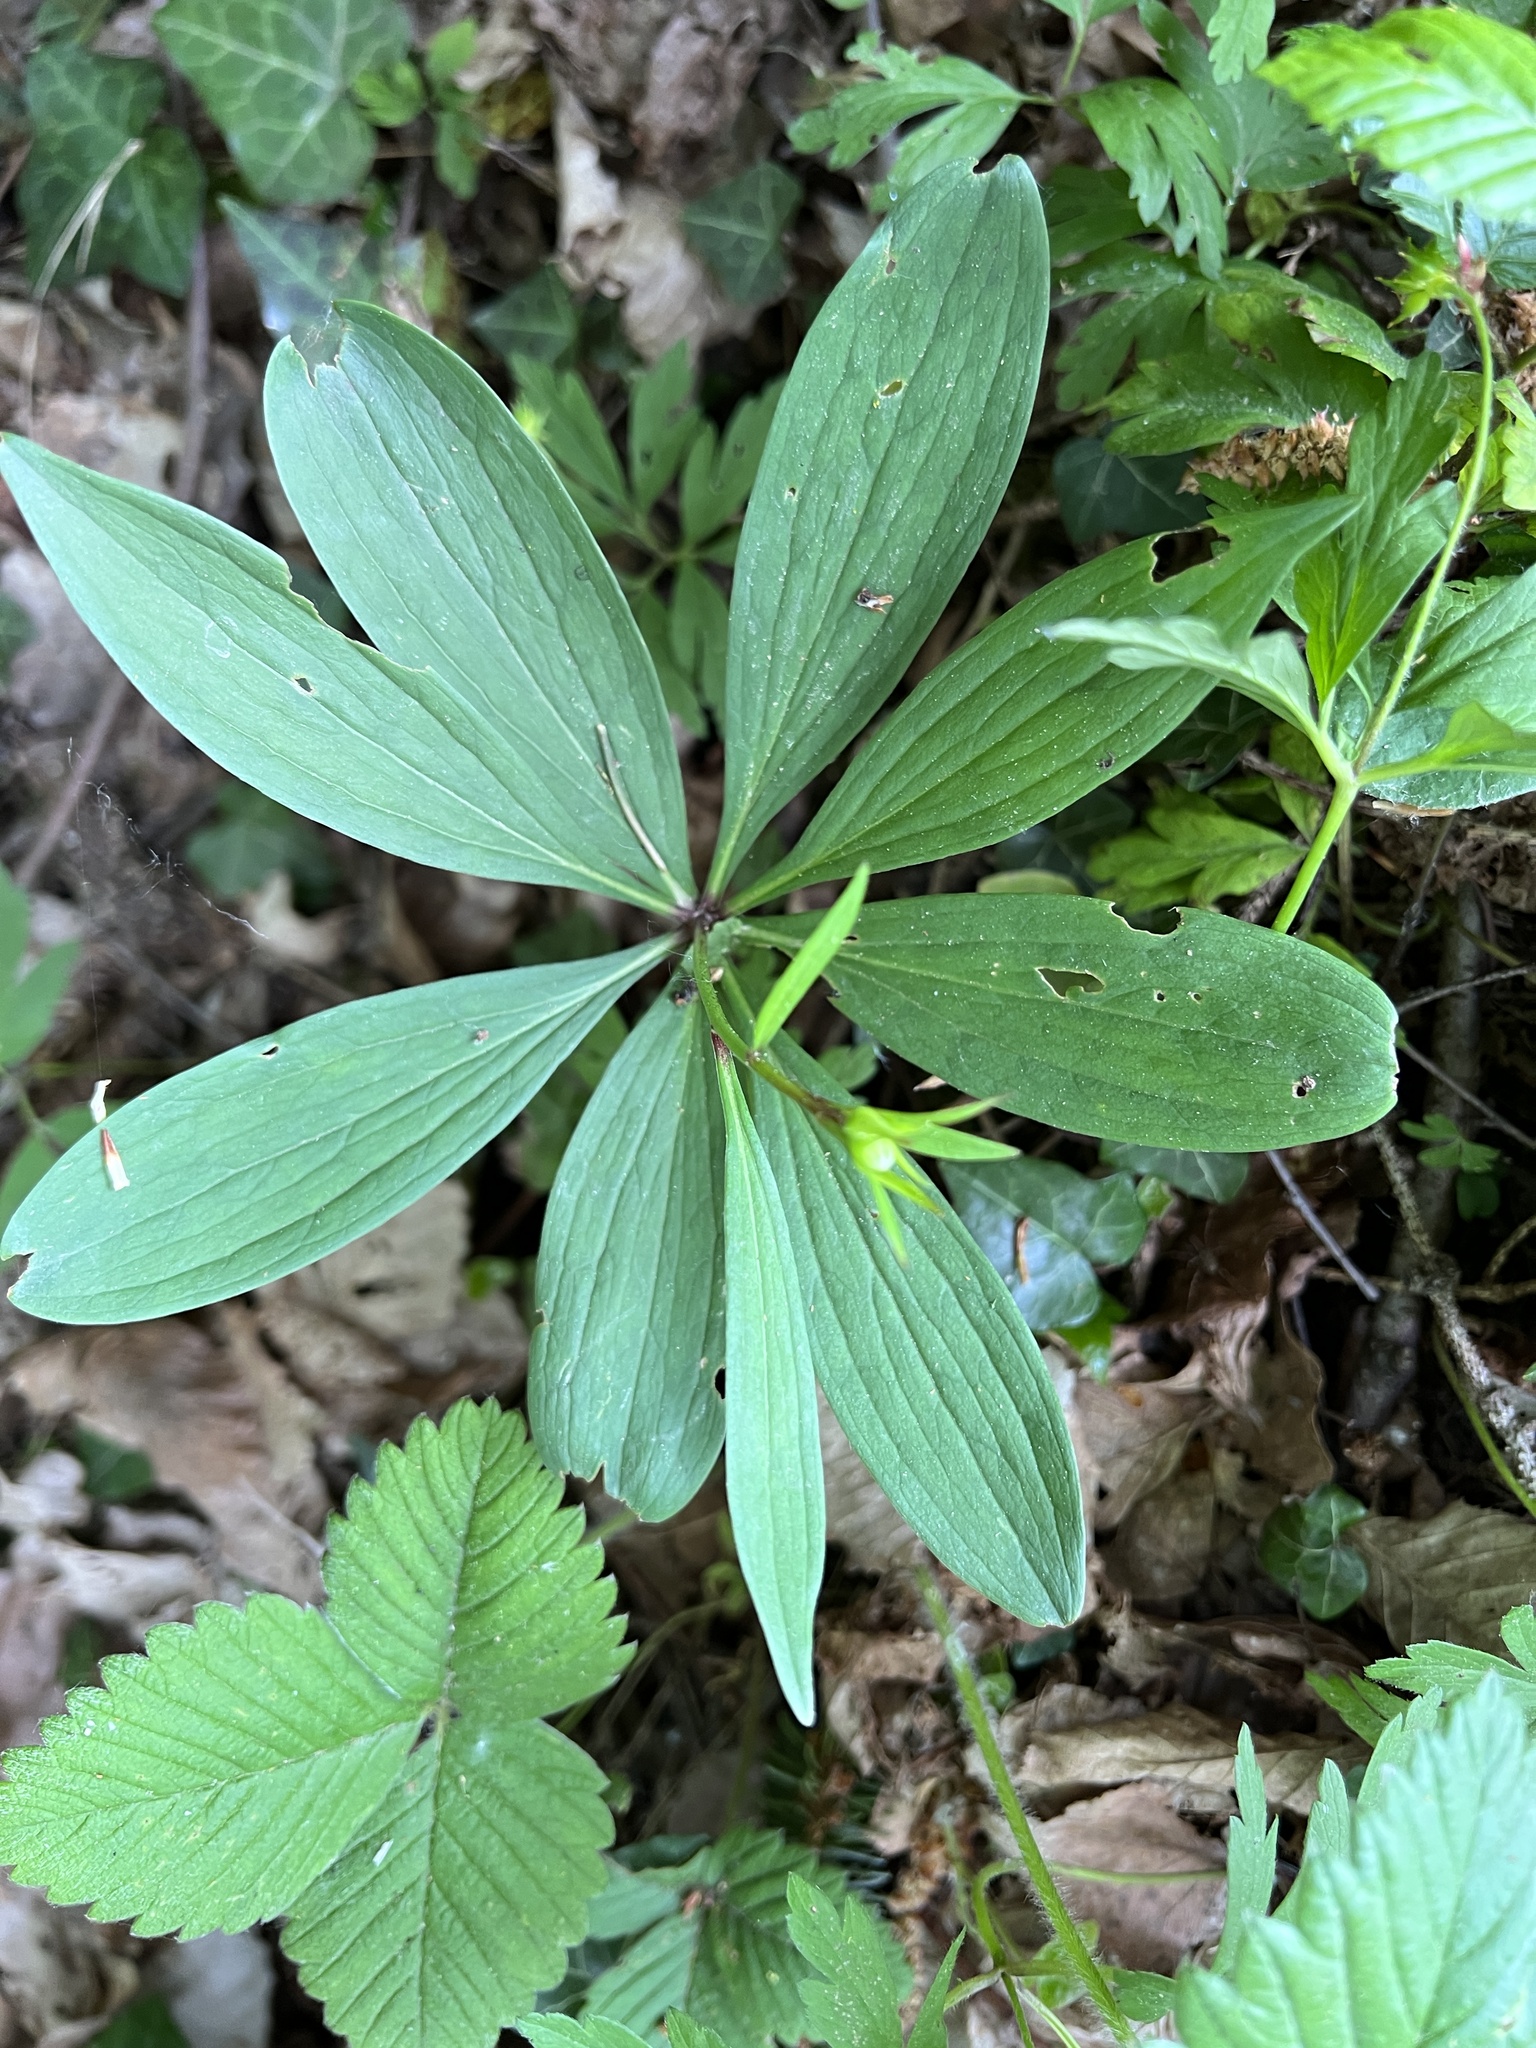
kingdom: Plantae
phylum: Tracheophyta
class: Liliopsida
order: Liliales
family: Liliaceae
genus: Lilium
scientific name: Lilium martagon
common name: Martagon lily
